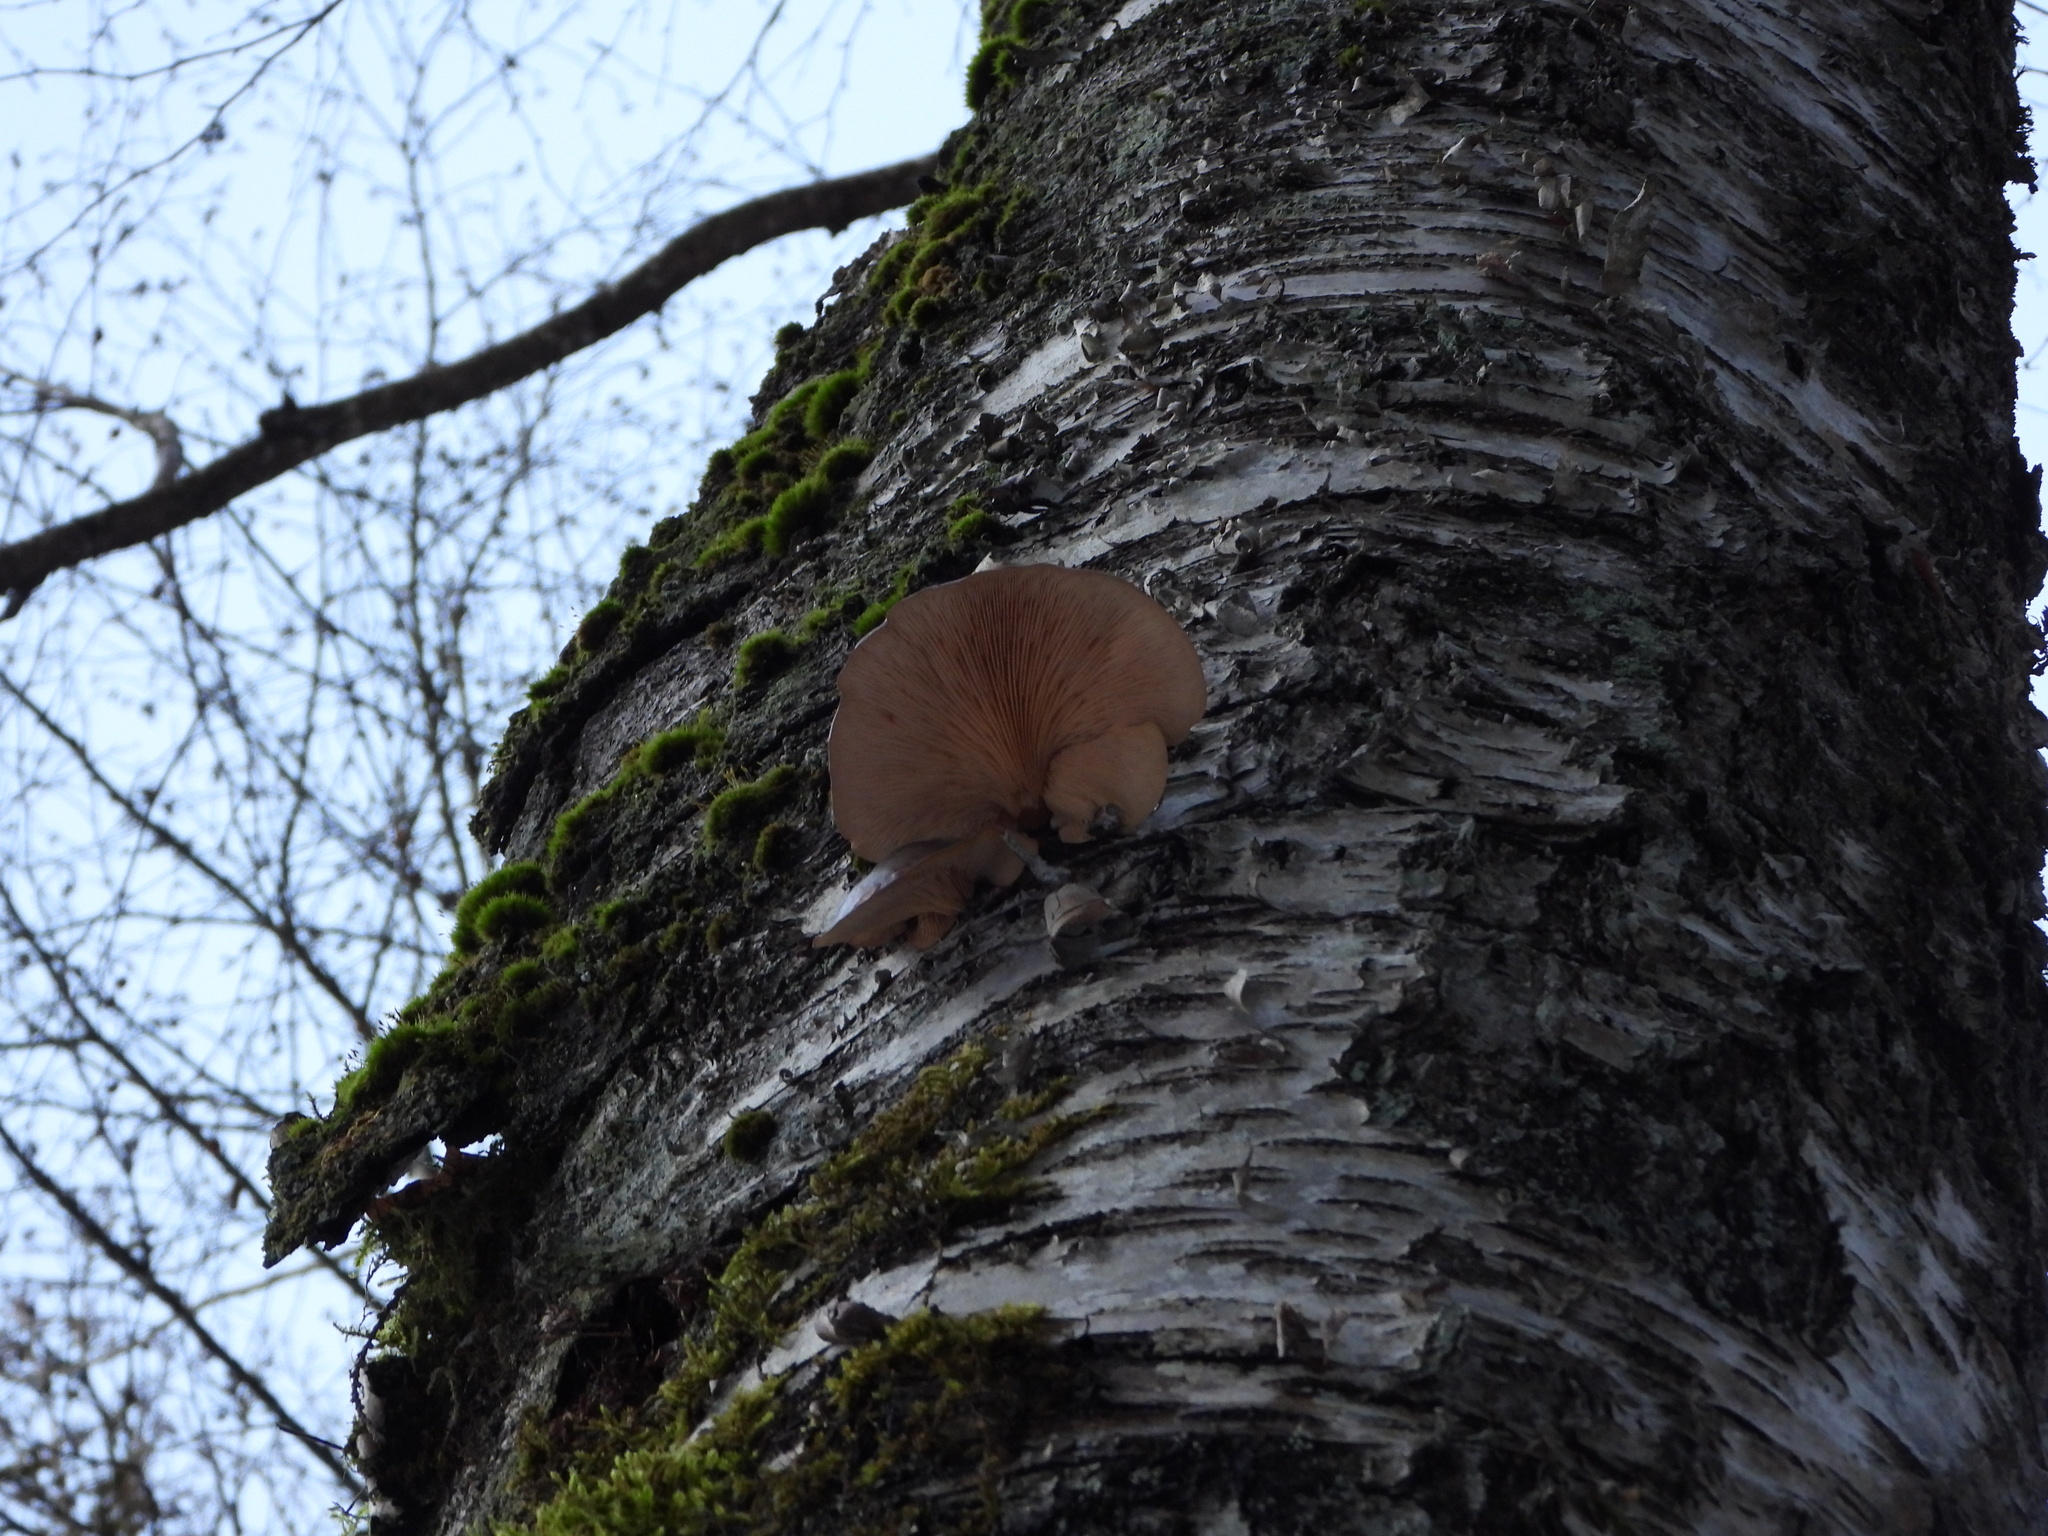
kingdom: Fungi
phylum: Basidiomycota
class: Agaricomycetes
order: Agaricales
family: Sarcomyxaceae
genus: Sarcomyxa
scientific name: Sarcomyxa serotina
